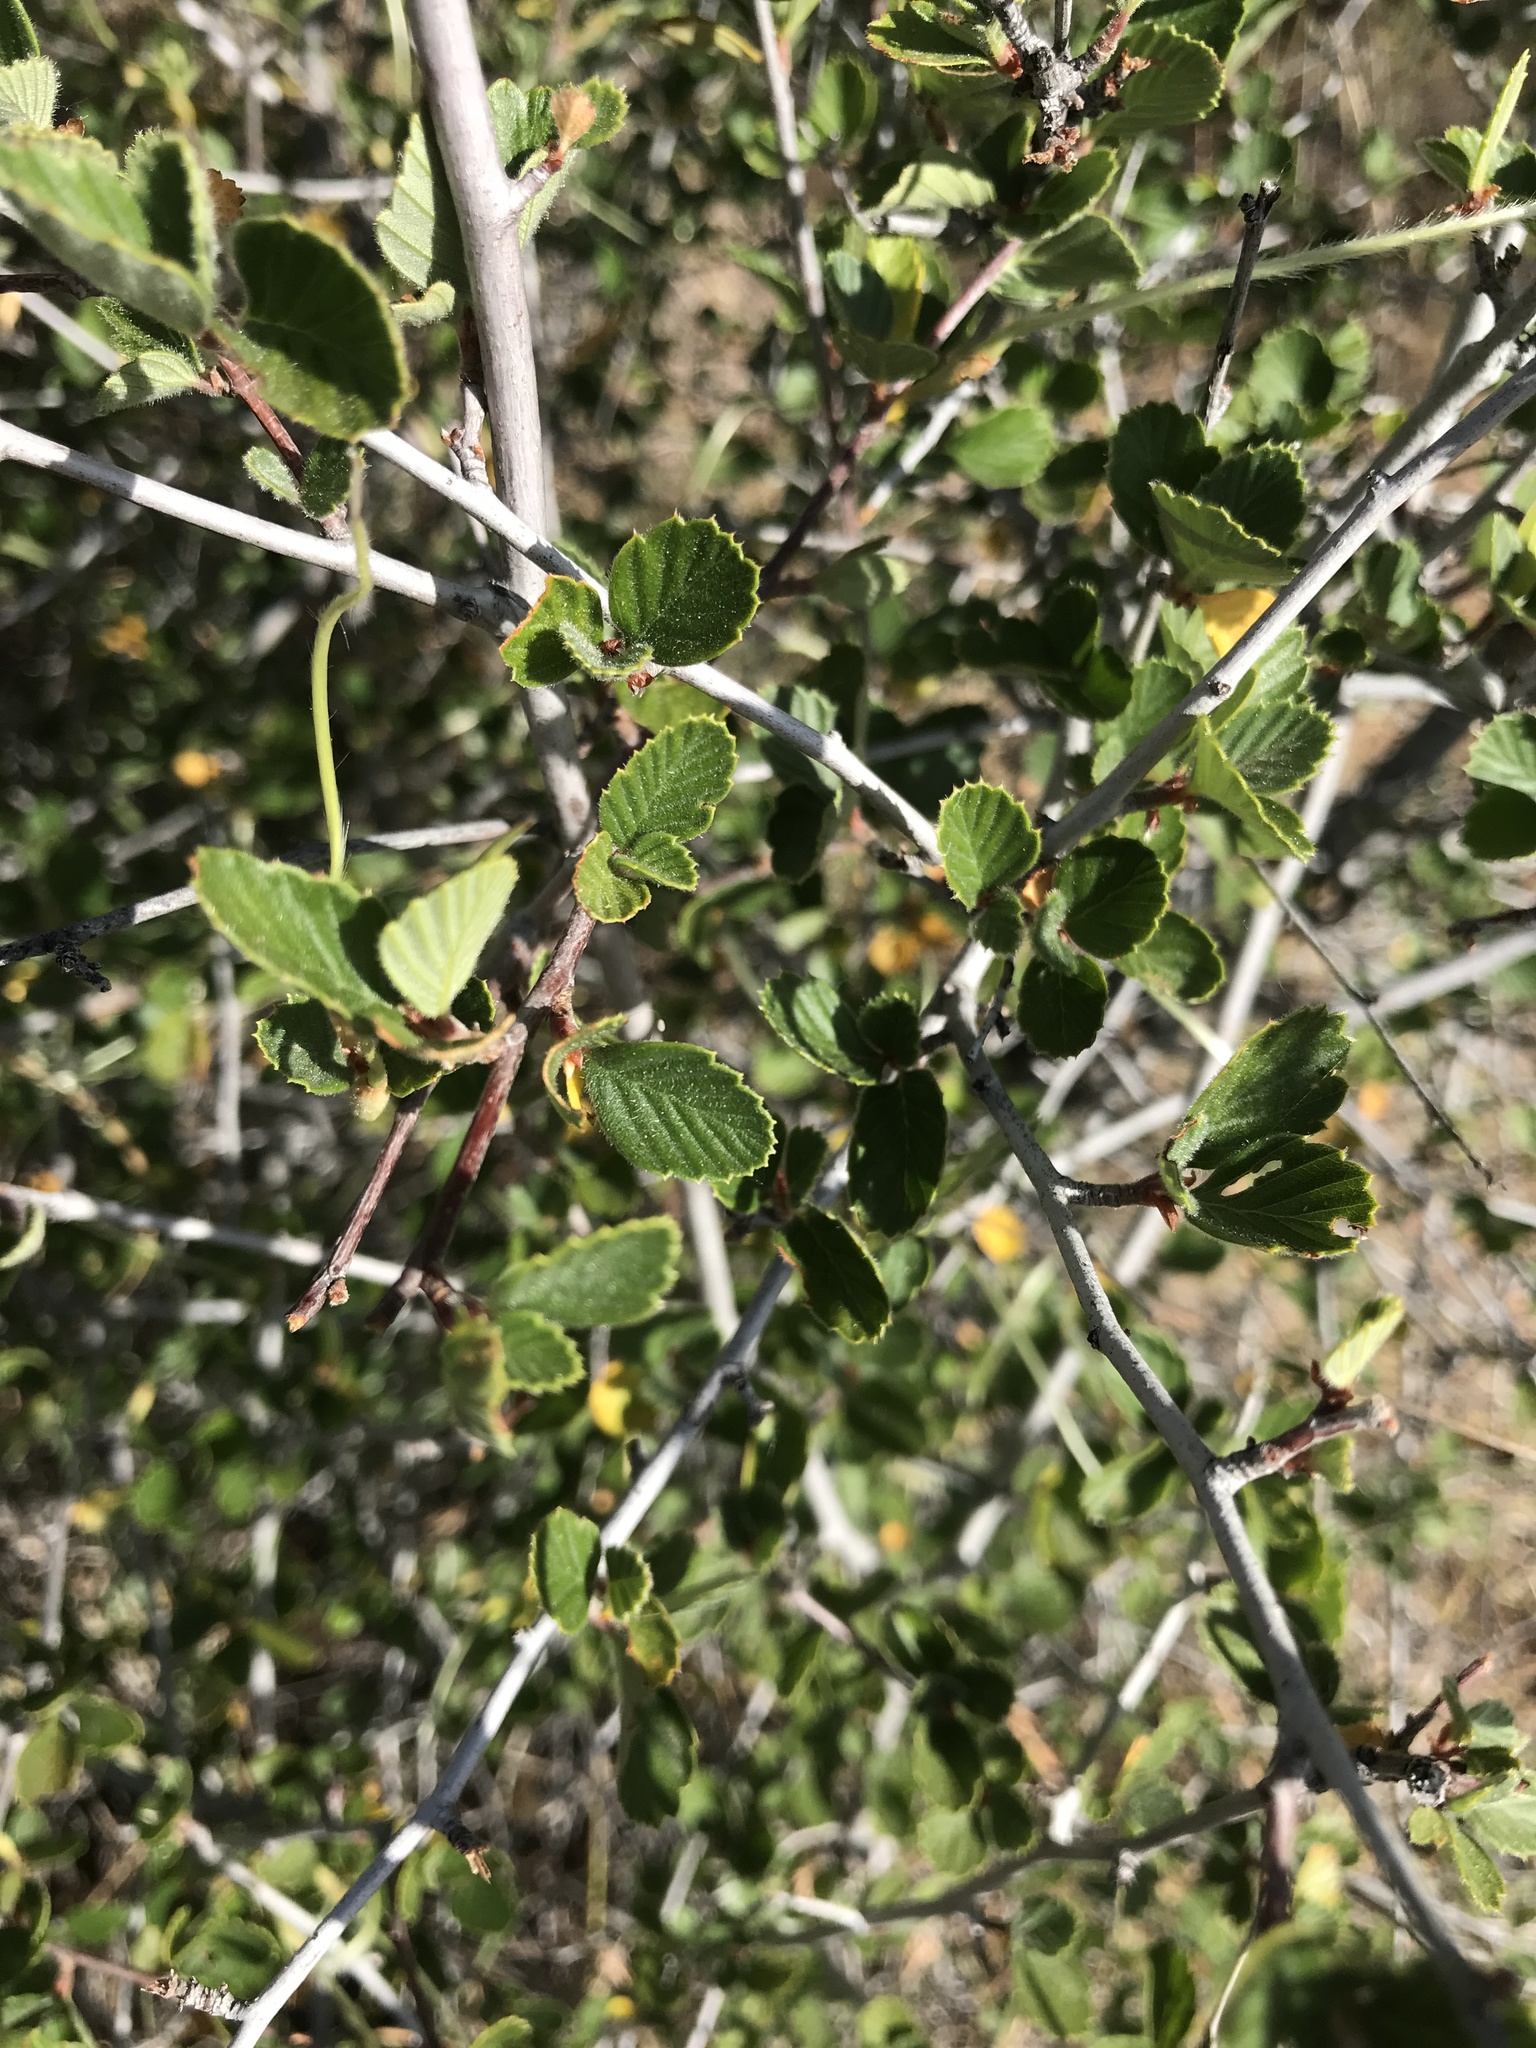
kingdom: Plantae
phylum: Tracheophyta
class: Magnoliopsida
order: Rosales
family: Rosaceae
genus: Cercocarpus
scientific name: Cercocarpus betuloides
